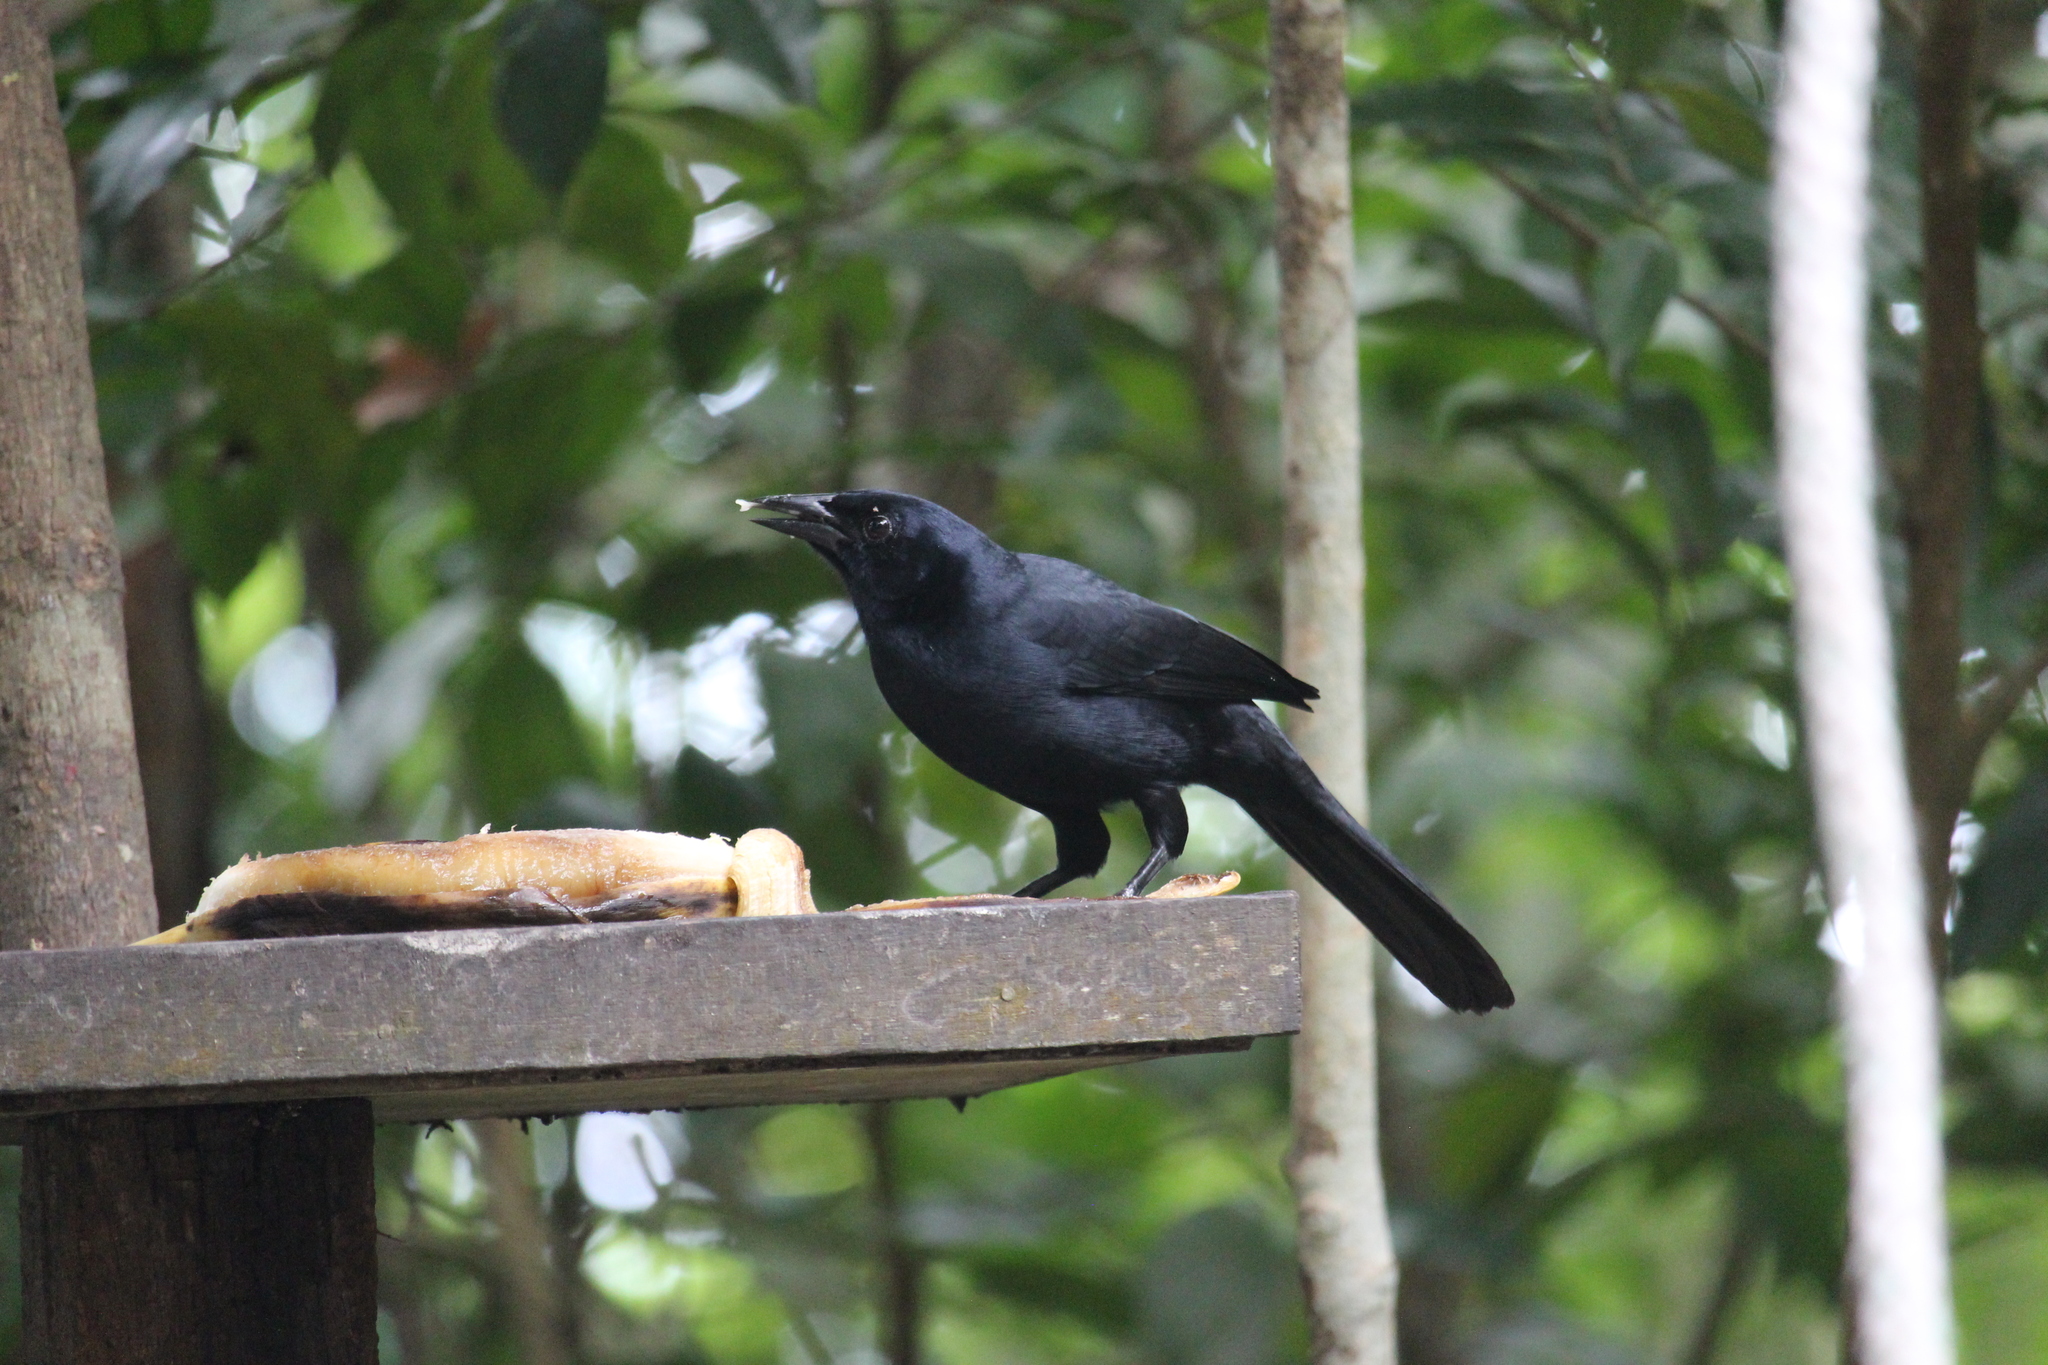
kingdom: Animalia
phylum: Chordata
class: Aves
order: Passeriformes
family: Icteridae
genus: Dives
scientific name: Dives dives
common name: Melodious blackbird
